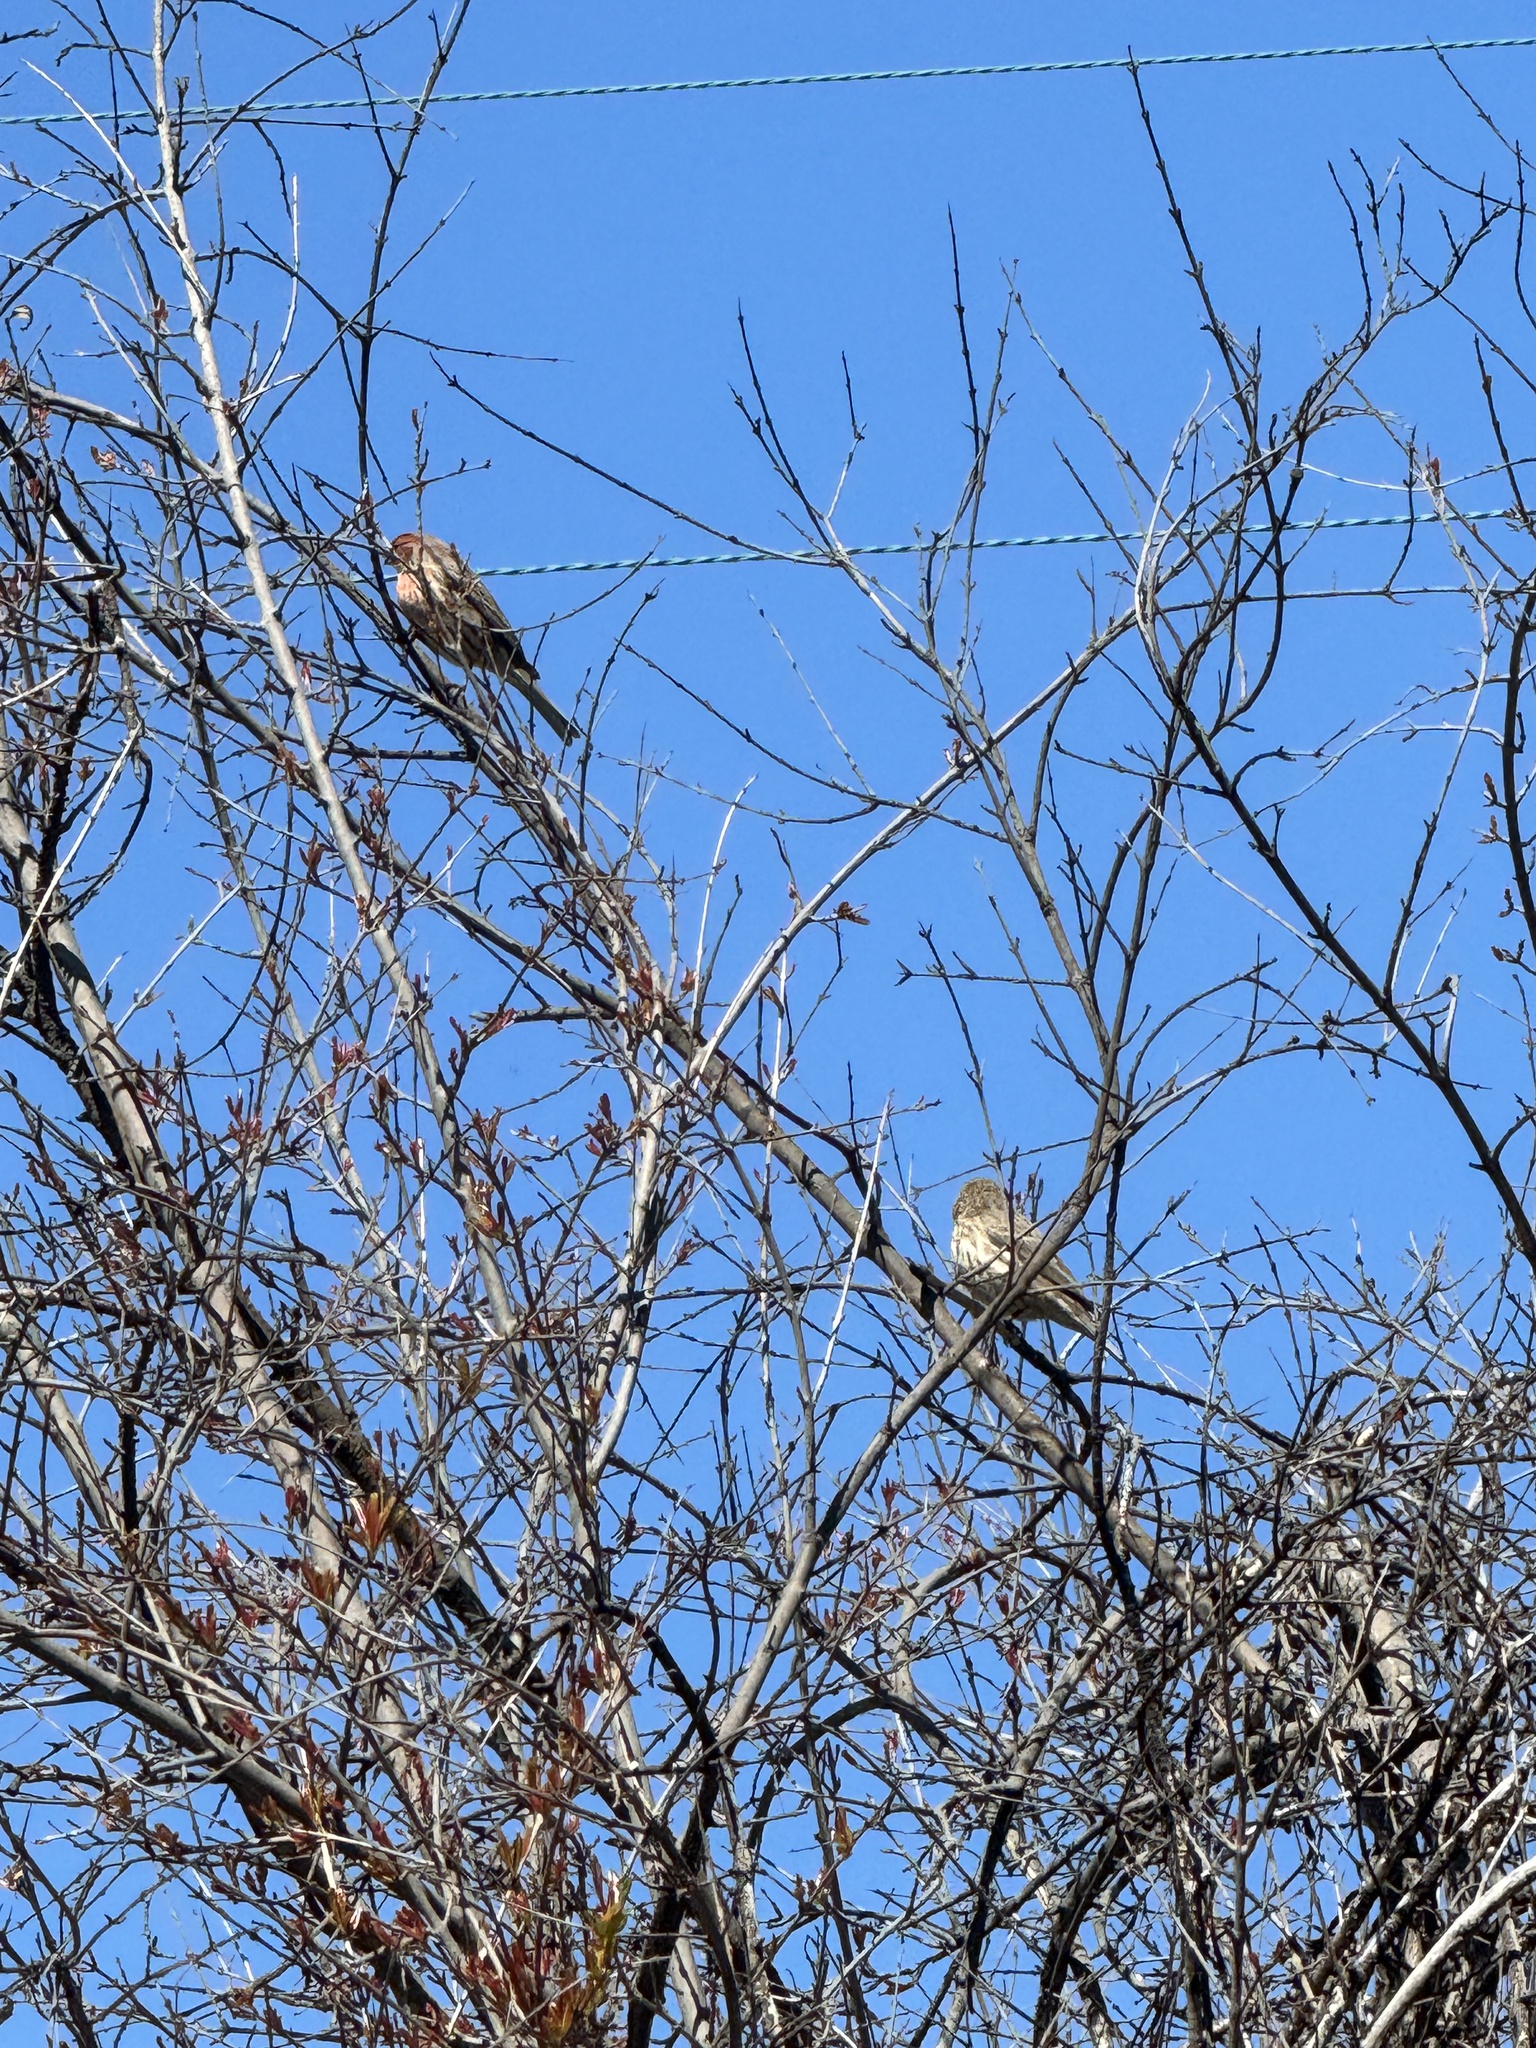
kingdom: Animalia
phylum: Chordata
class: Aves
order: Passeriformes
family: Fringillidae
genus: Haemorhous
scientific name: Haemorhous mexicanus
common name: House finch
